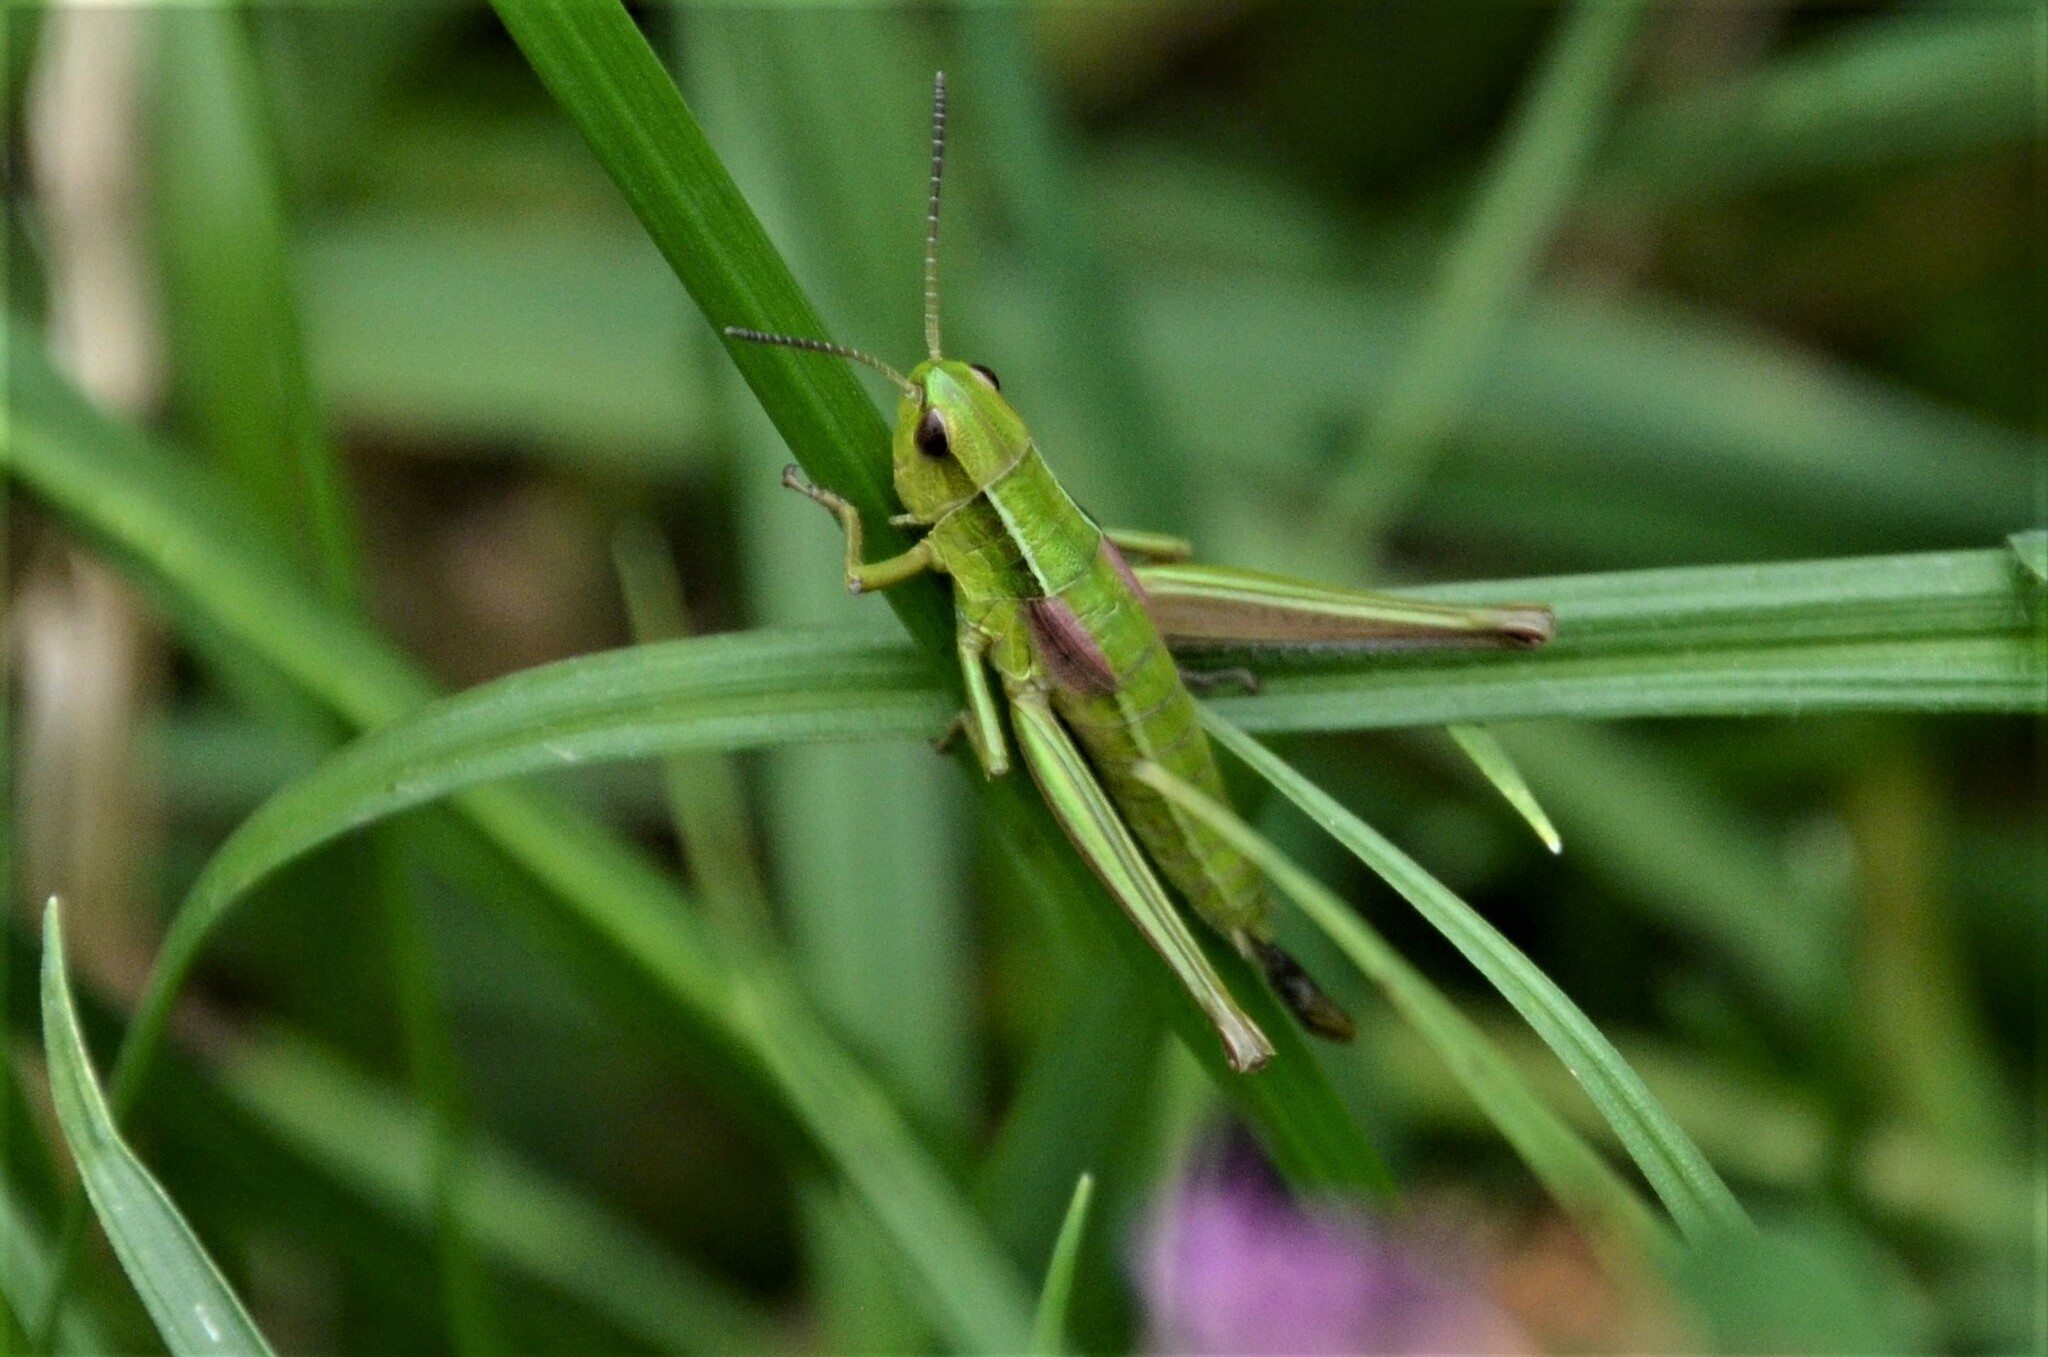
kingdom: Animalia
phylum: Arthropoda
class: Insecta
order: Orthoptera
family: Acrididae
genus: Euthystira
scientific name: Euthystira brachyptera
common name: Small gold grasshopper
